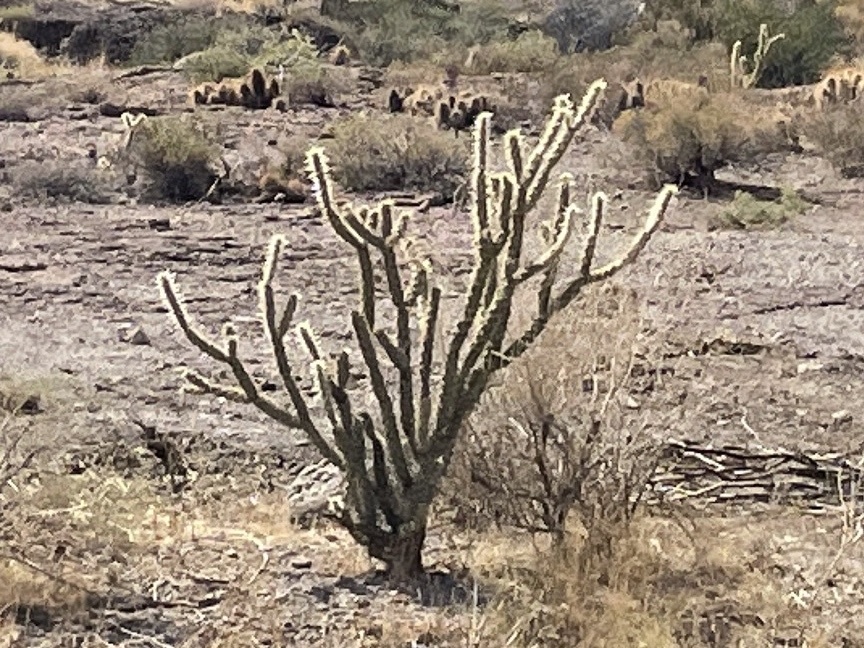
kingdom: Plantae
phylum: Tracheophyta
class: Magnoliopsida
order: Caryophyllales
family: Cactaceae
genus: Cylindropuntia
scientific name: Cylindropuntia acanthocarpa
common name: Buckhorn cholla
